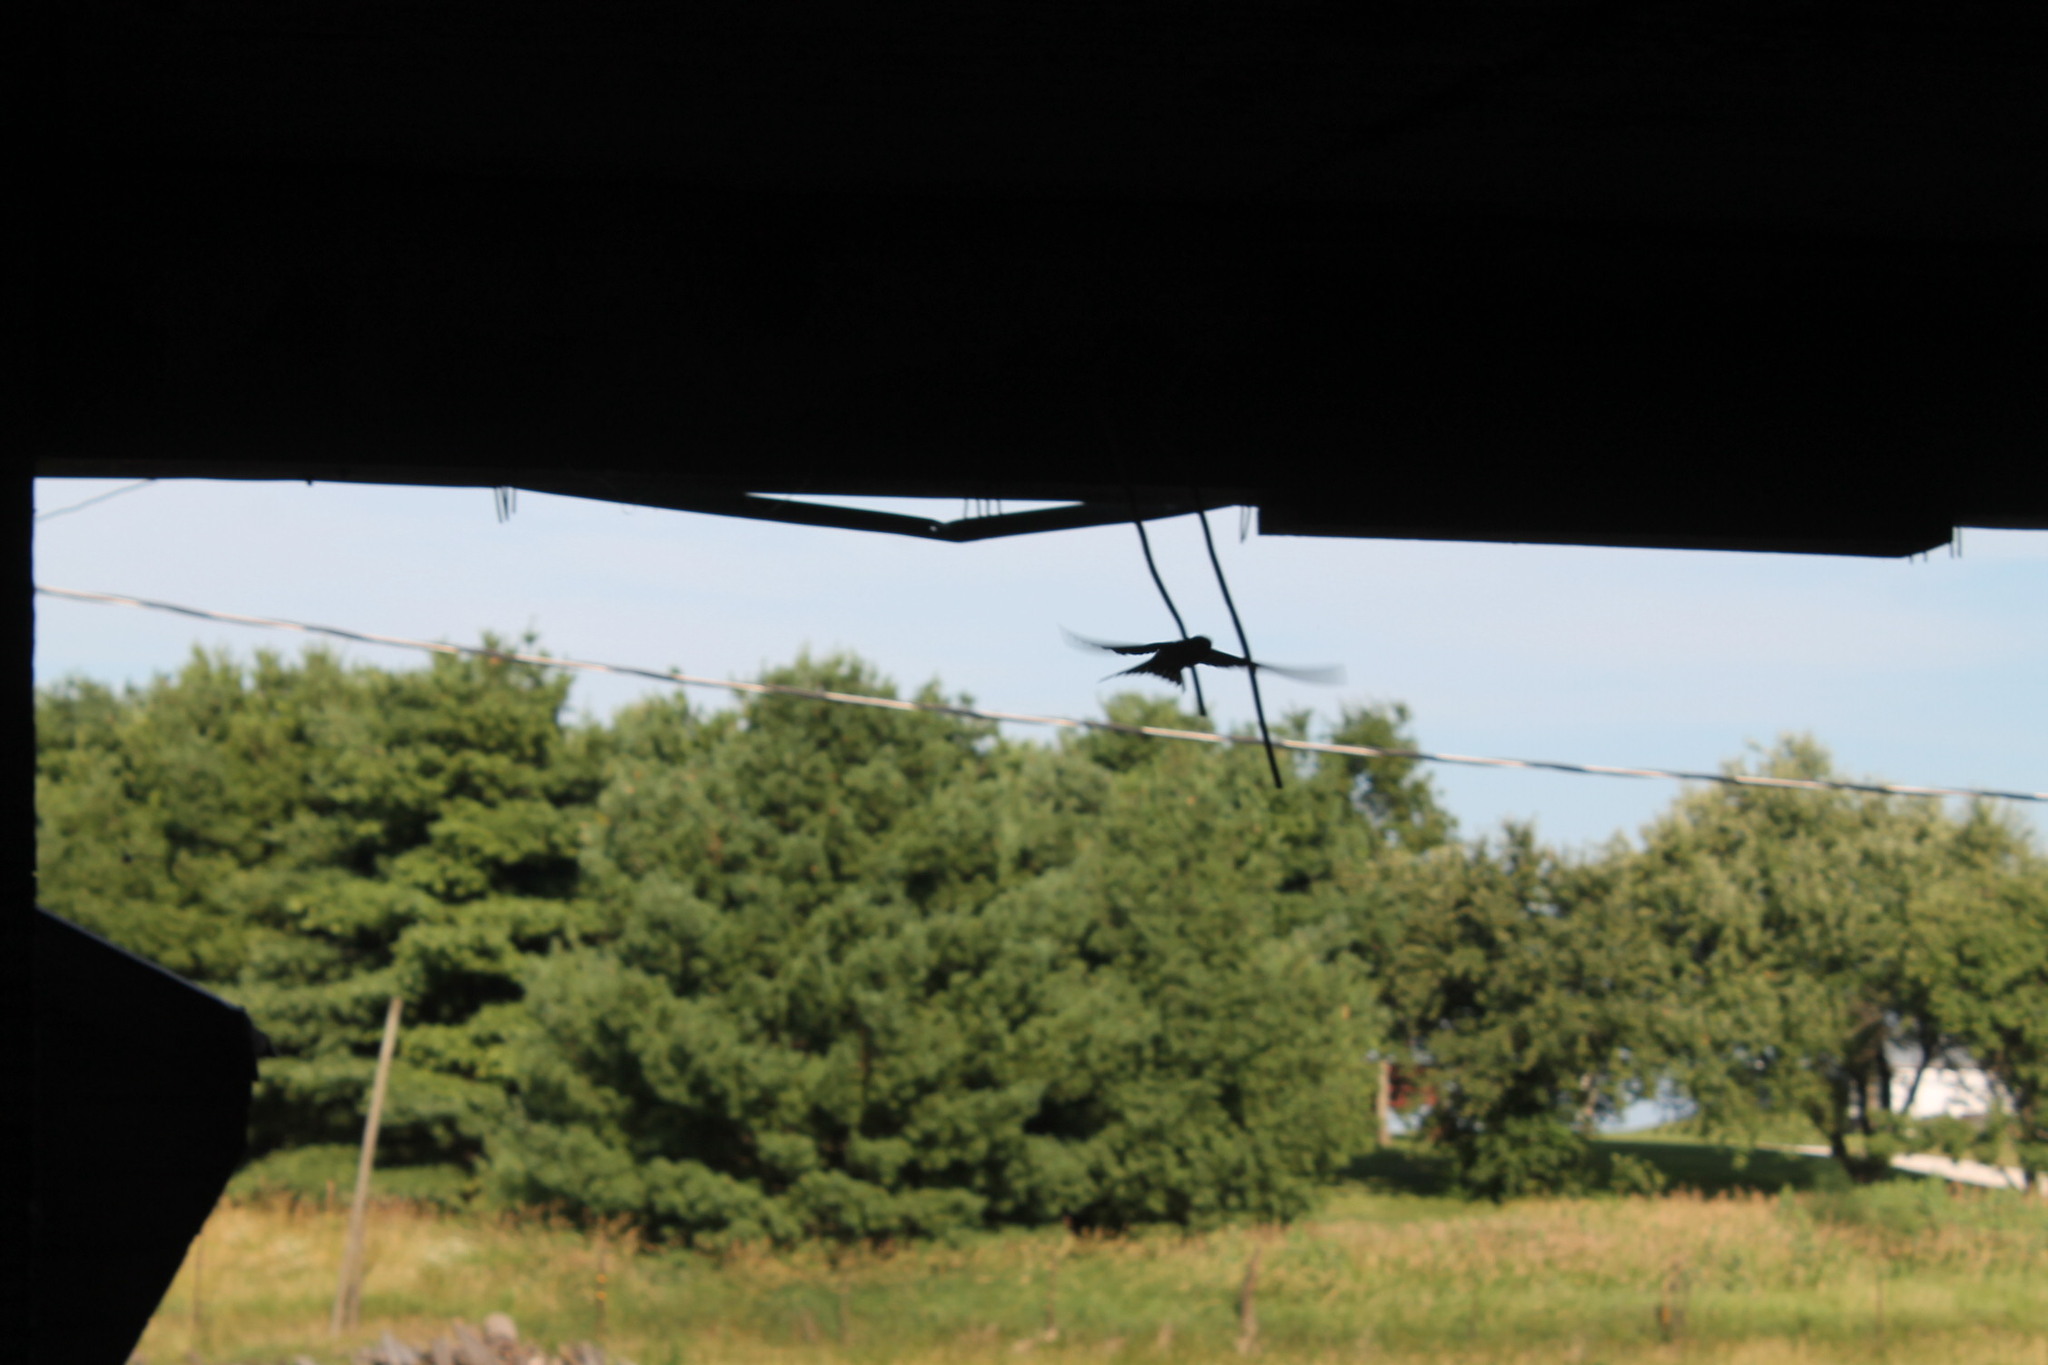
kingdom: Animalia
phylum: Chordata
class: Aves
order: Passeriformes
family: Hirundinidae
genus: Hirundo
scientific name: Hirundo rustica
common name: Barn swallow
